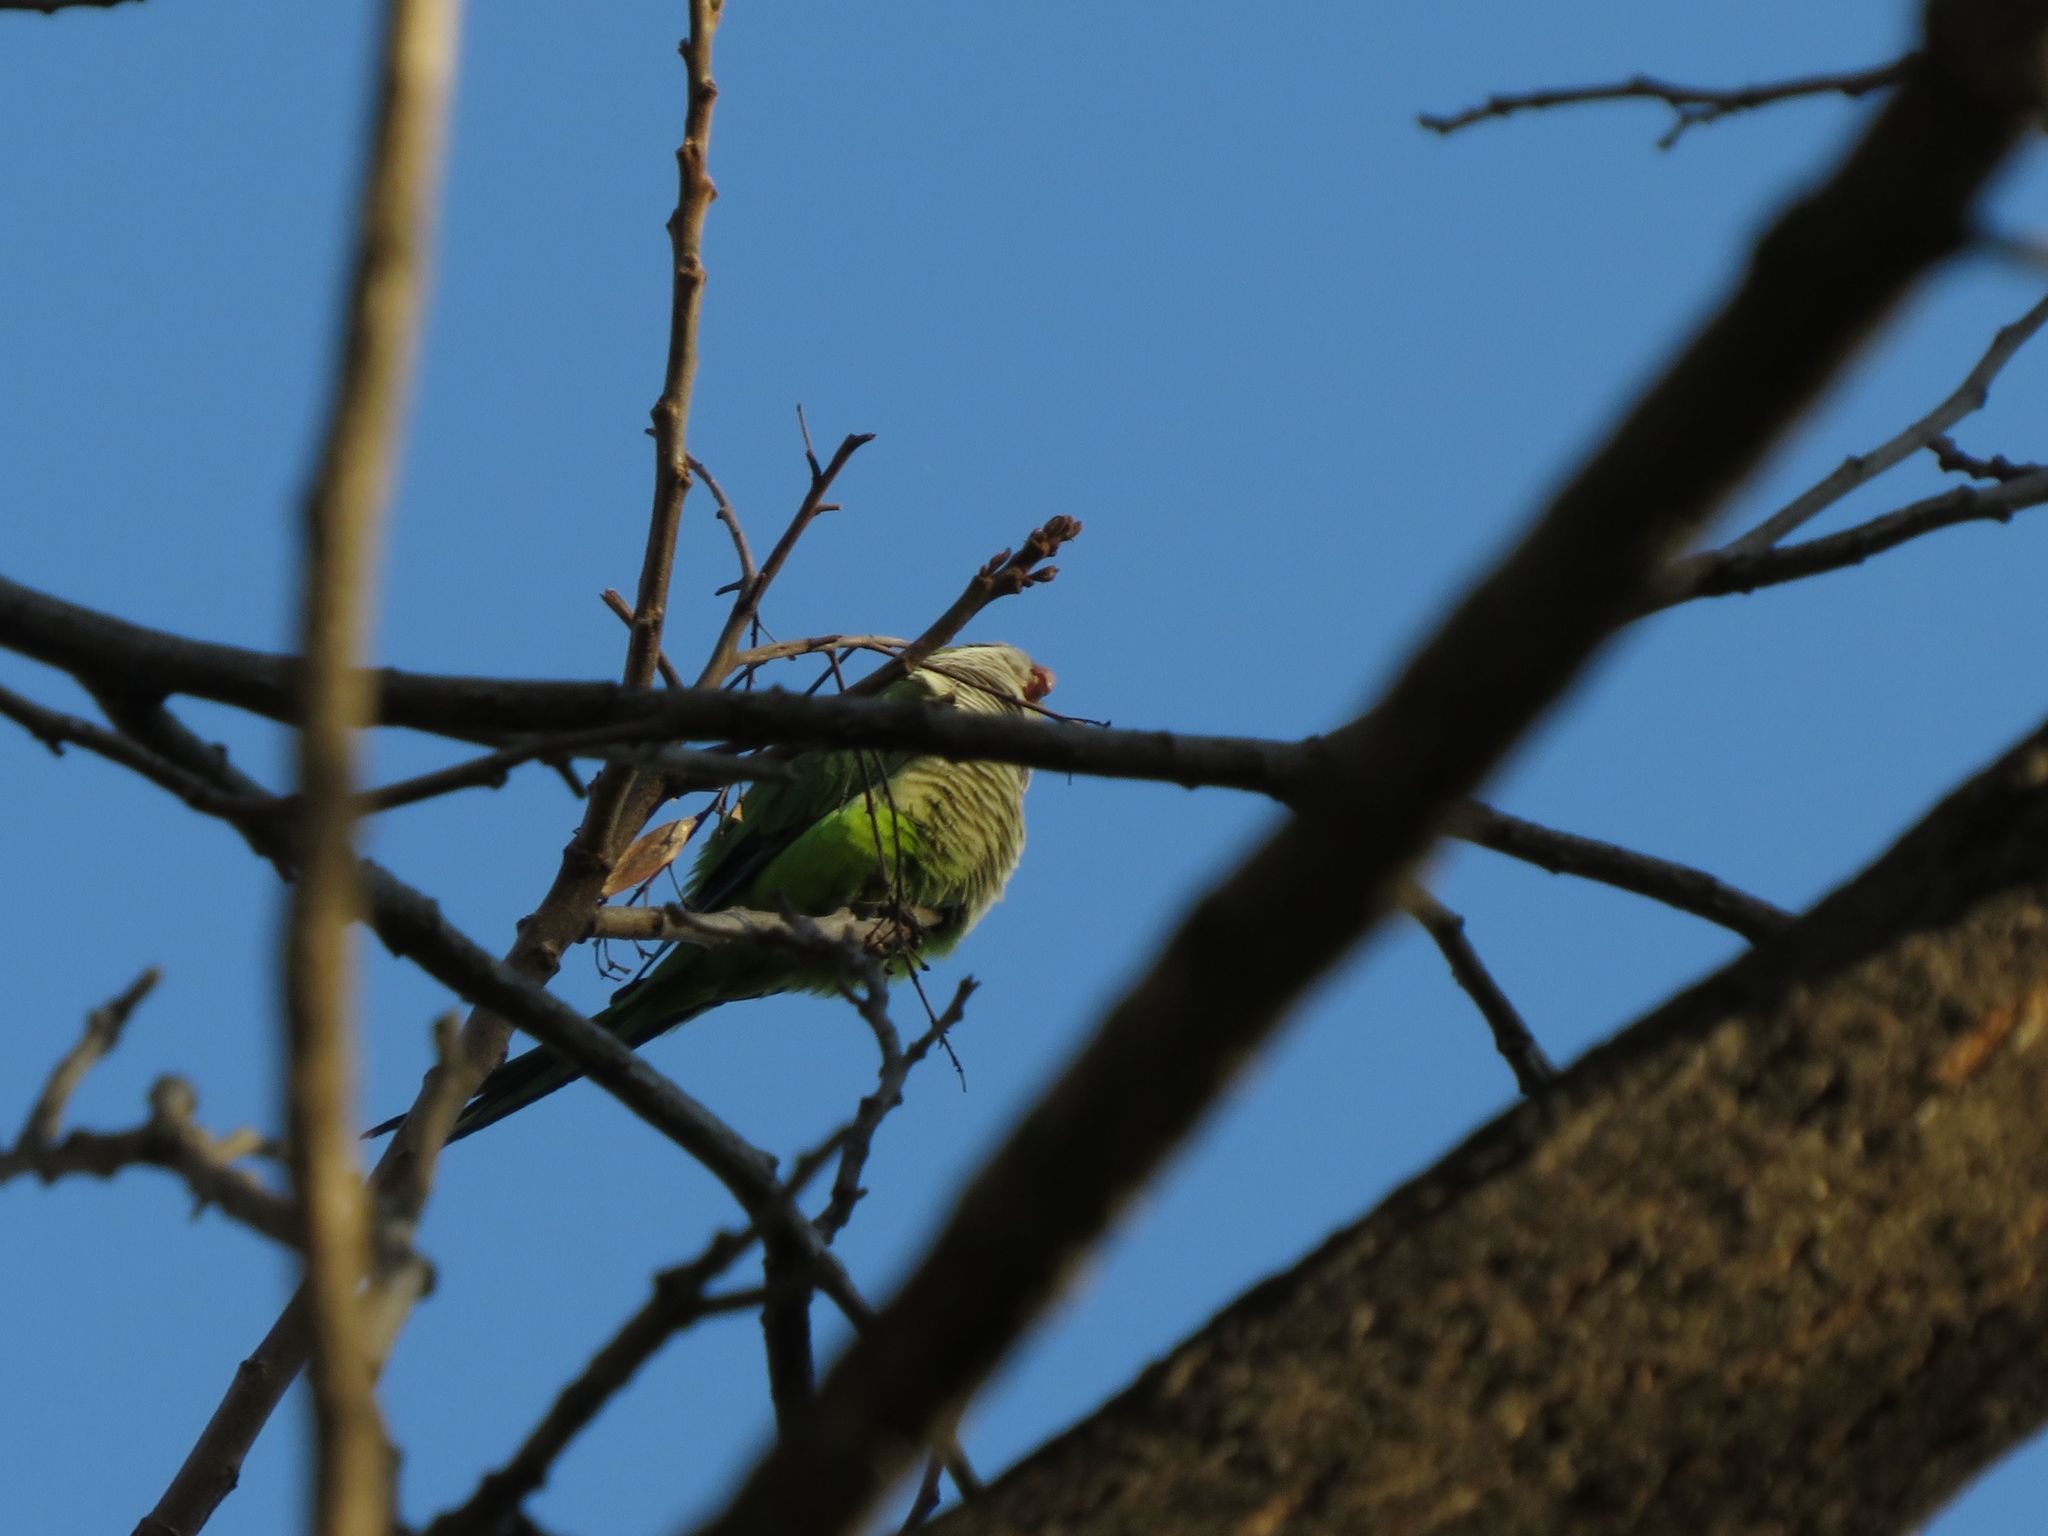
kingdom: Animalia
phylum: Chordata
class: Aves
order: Psittaciformes
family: Psittacidae
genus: Myiopsitta
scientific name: Myiopsitta monachus
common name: Monk parakeet
